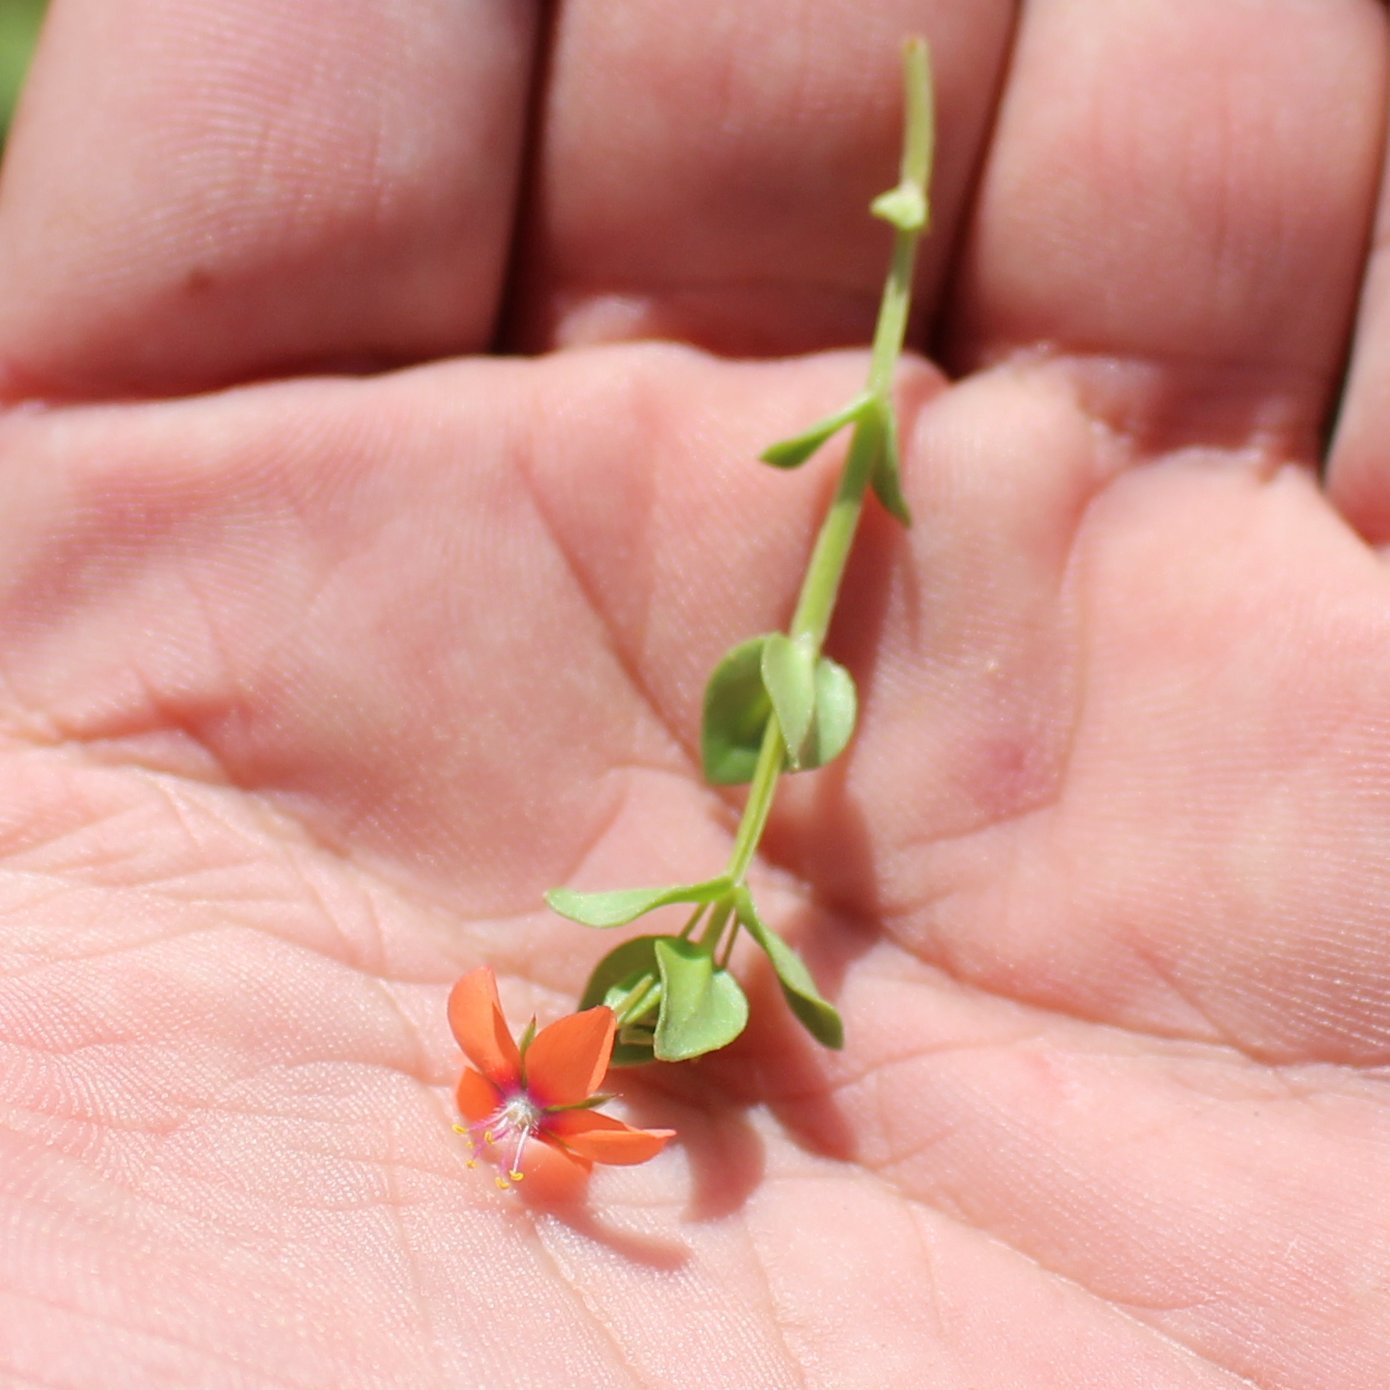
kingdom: Plantae
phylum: Tracheophyta
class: Magnoliopsida
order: Ericales
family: Primulaceae
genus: Lysimachia
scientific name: Lysimachia arvensis
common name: Scarlet pimpernel
